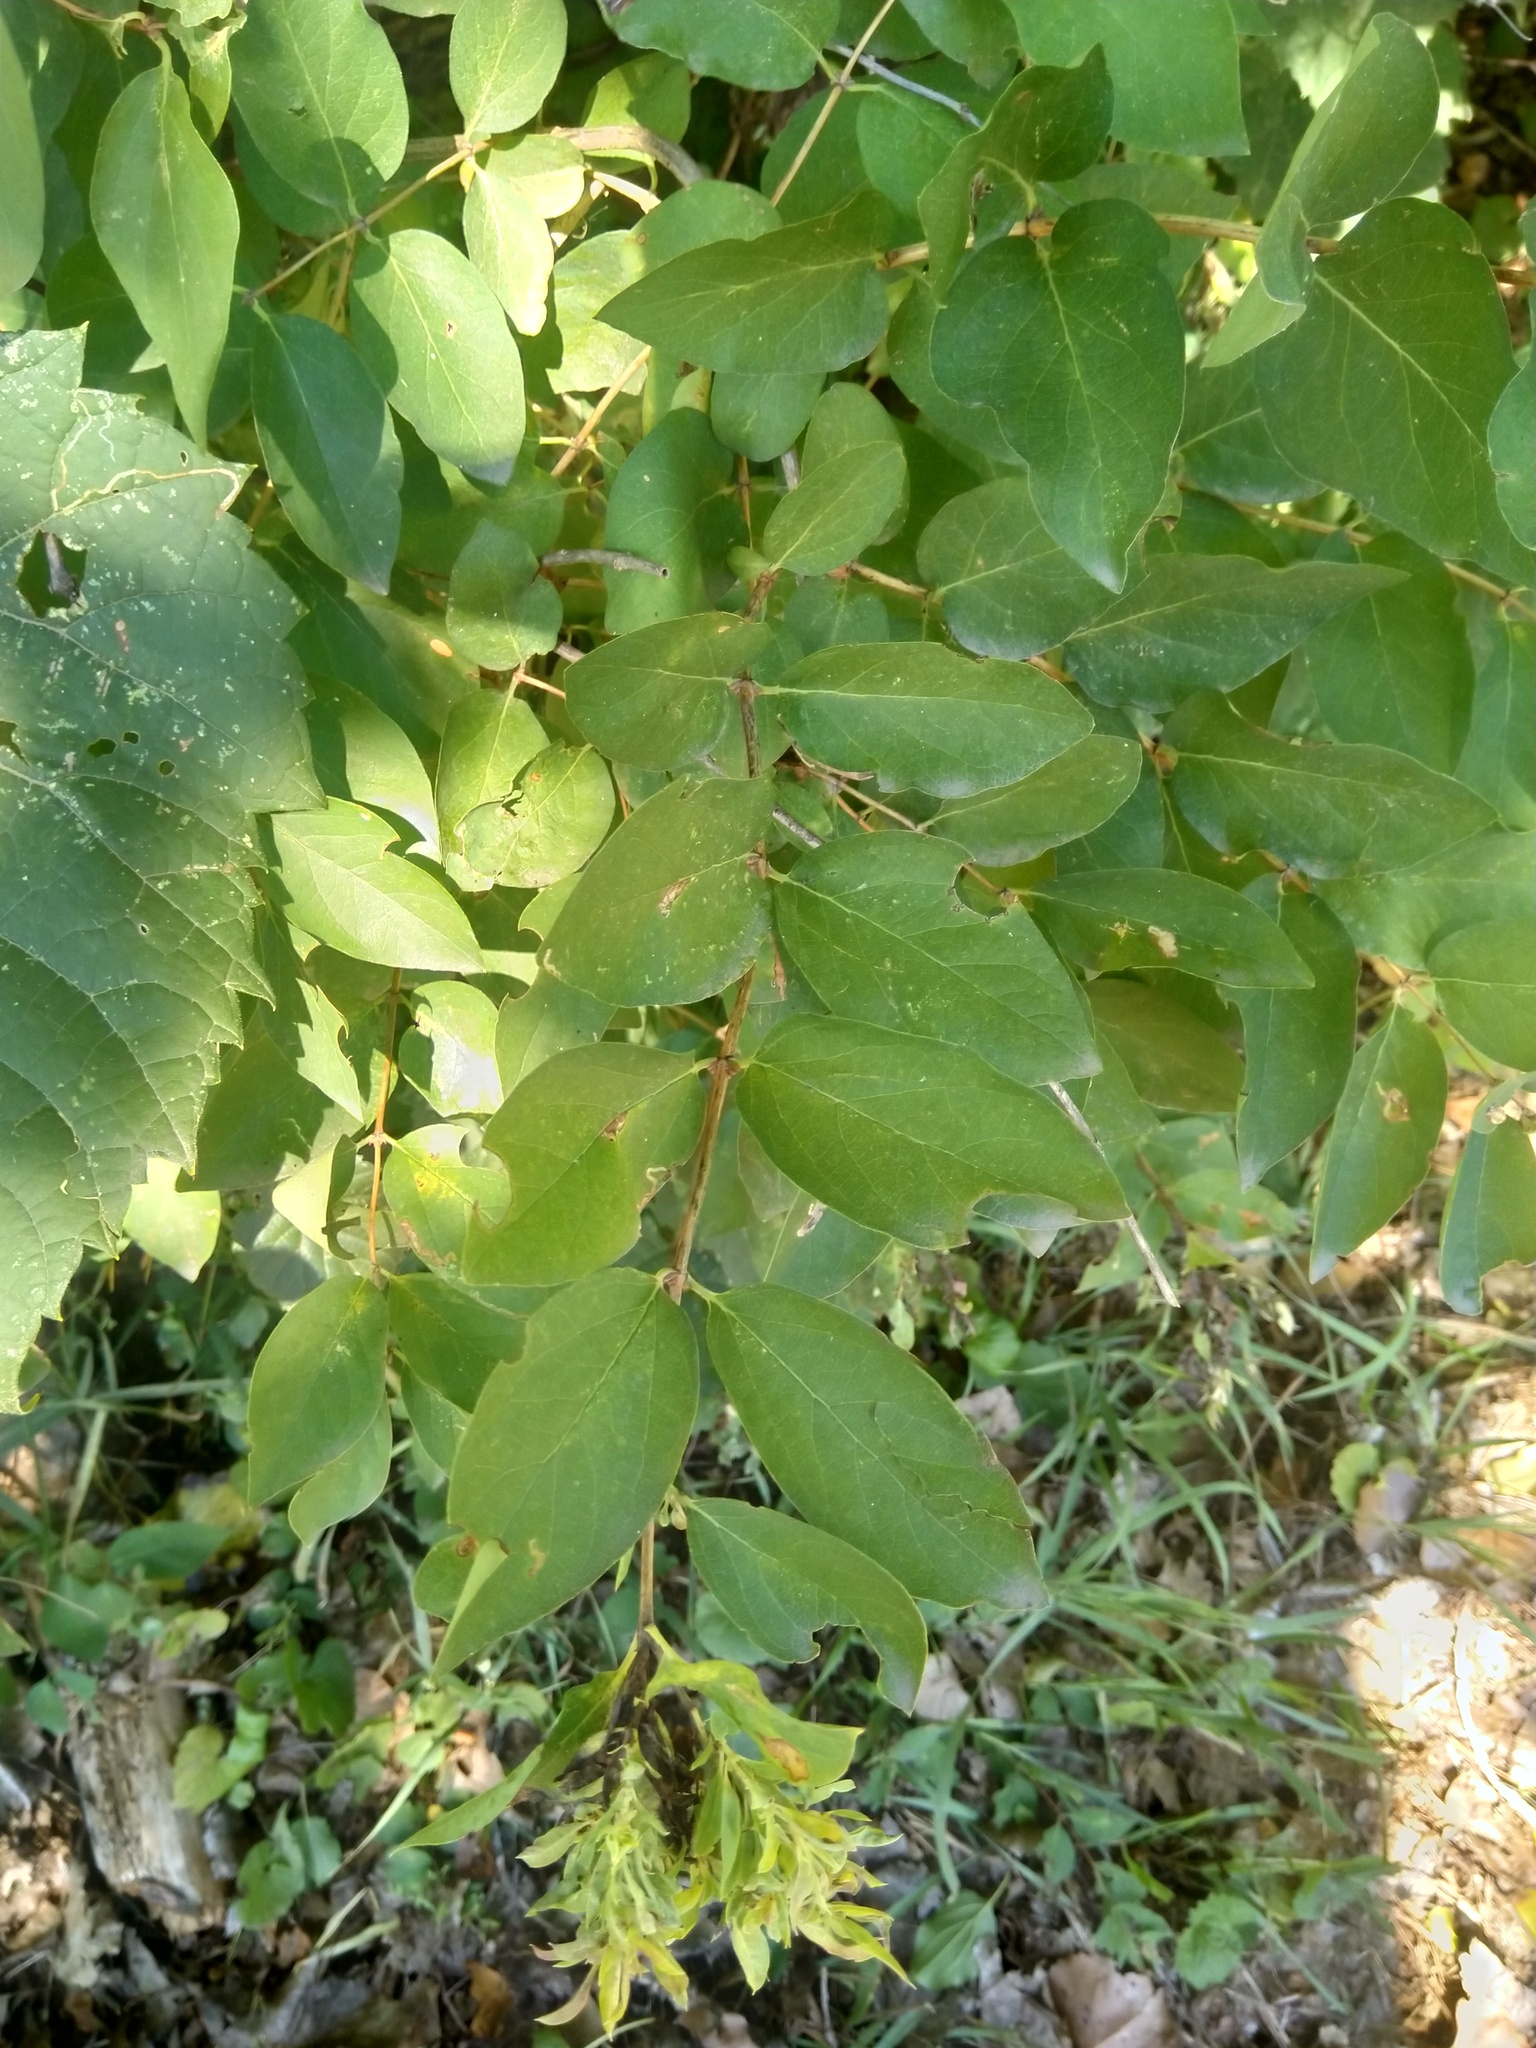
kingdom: Animalia
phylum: Arthropoda
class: Insecta
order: Hemiptera
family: Aphididae
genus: Hyadaphis
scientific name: Hyadaphis tataricae
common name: Honeysuckle witches' broom aphid
